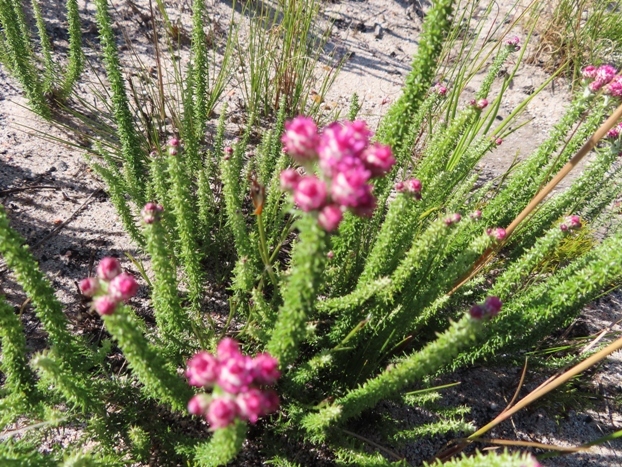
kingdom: Plantae
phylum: Tracheophyta
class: Magnoliopsida
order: Asterales
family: Asteraceae
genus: Lachnospermum
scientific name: Lachnospermum umbellatum
